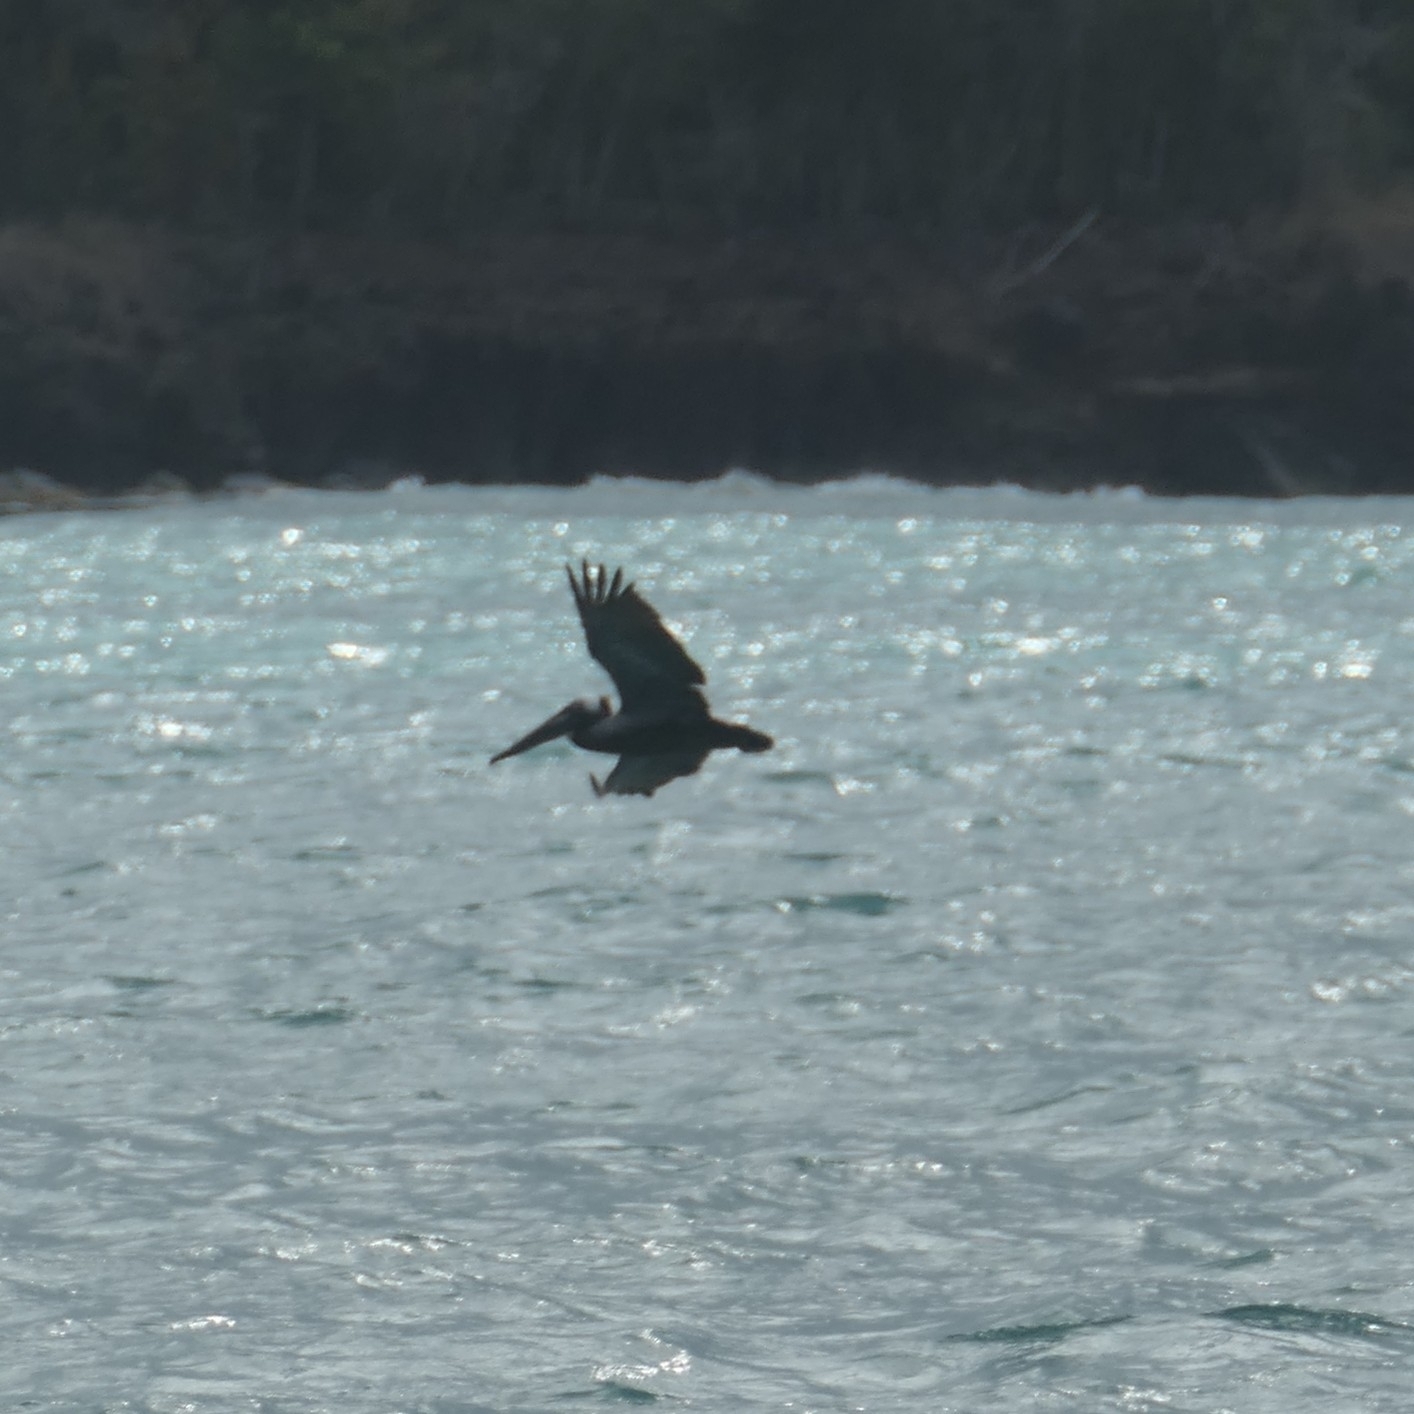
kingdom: Animalia
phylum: Chordata
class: Aves
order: Pelecaniformes
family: Pelecanidae
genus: Pelecanus
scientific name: Pelecanus occidentalis
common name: Brown pelican
